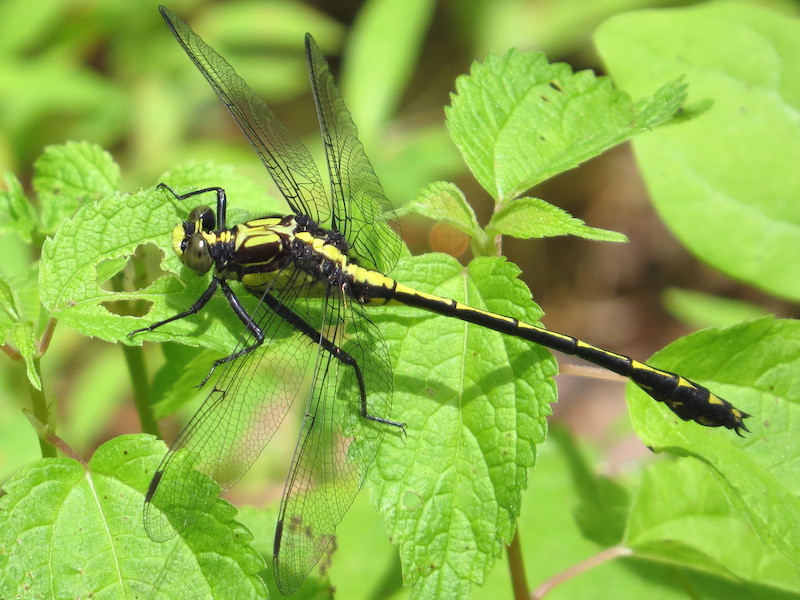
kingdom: Animalia
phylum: Arthropoda
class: Insecta
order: Odonata
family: Gomphidae
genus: Dromogomphus
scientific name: Dromogomphus spinosus
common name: Black-shouldered spinyleg
